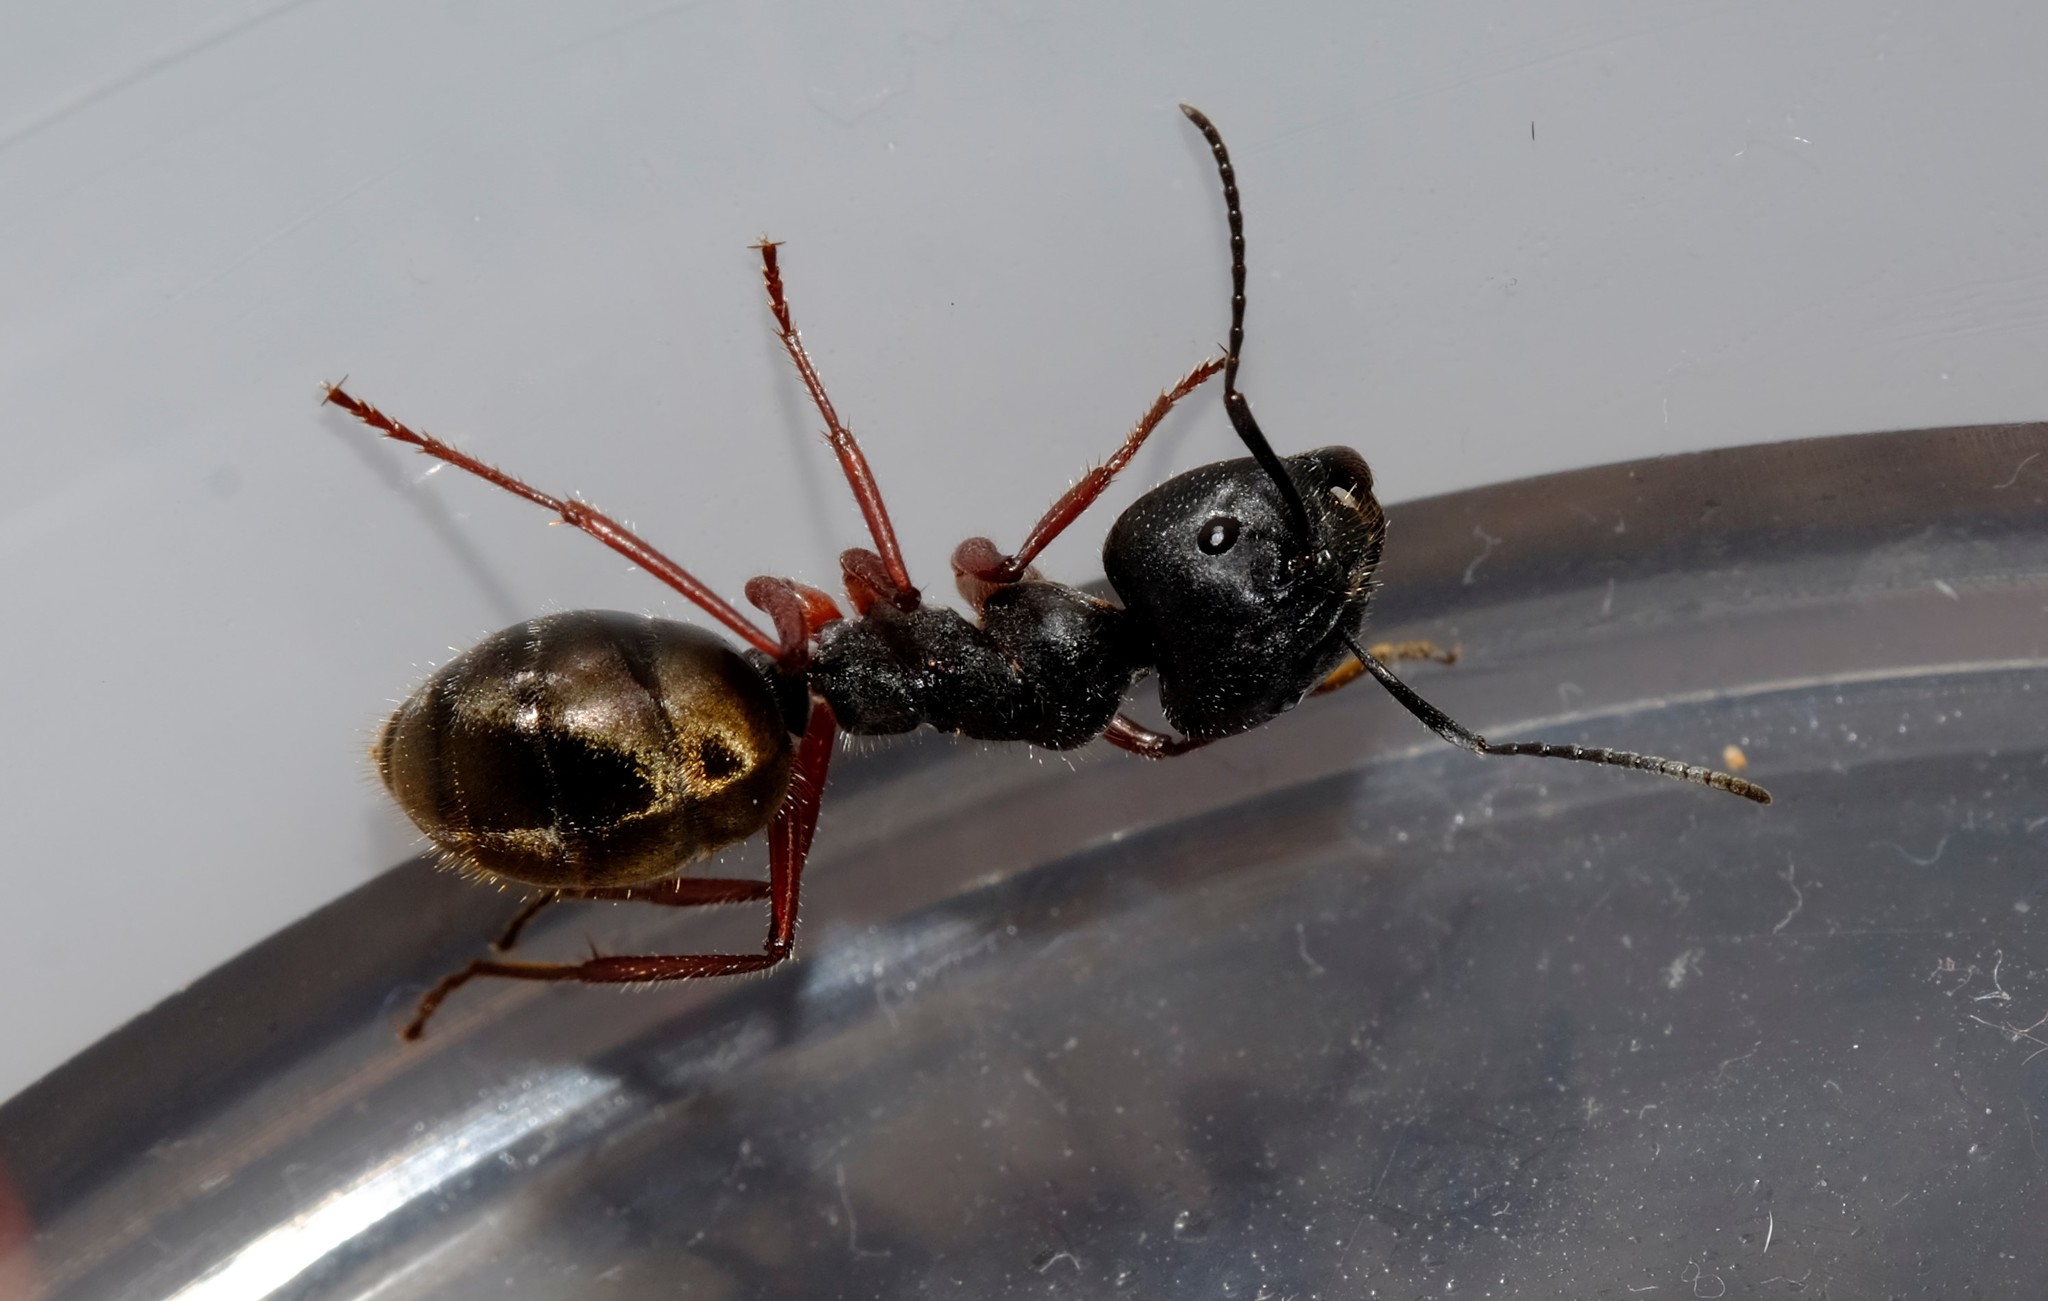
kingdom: Animalia
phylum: Arthropoda
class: Insecta
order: Hymenoptera
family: Formicidae
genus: Camponotus
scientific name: Camponotus suffusus
